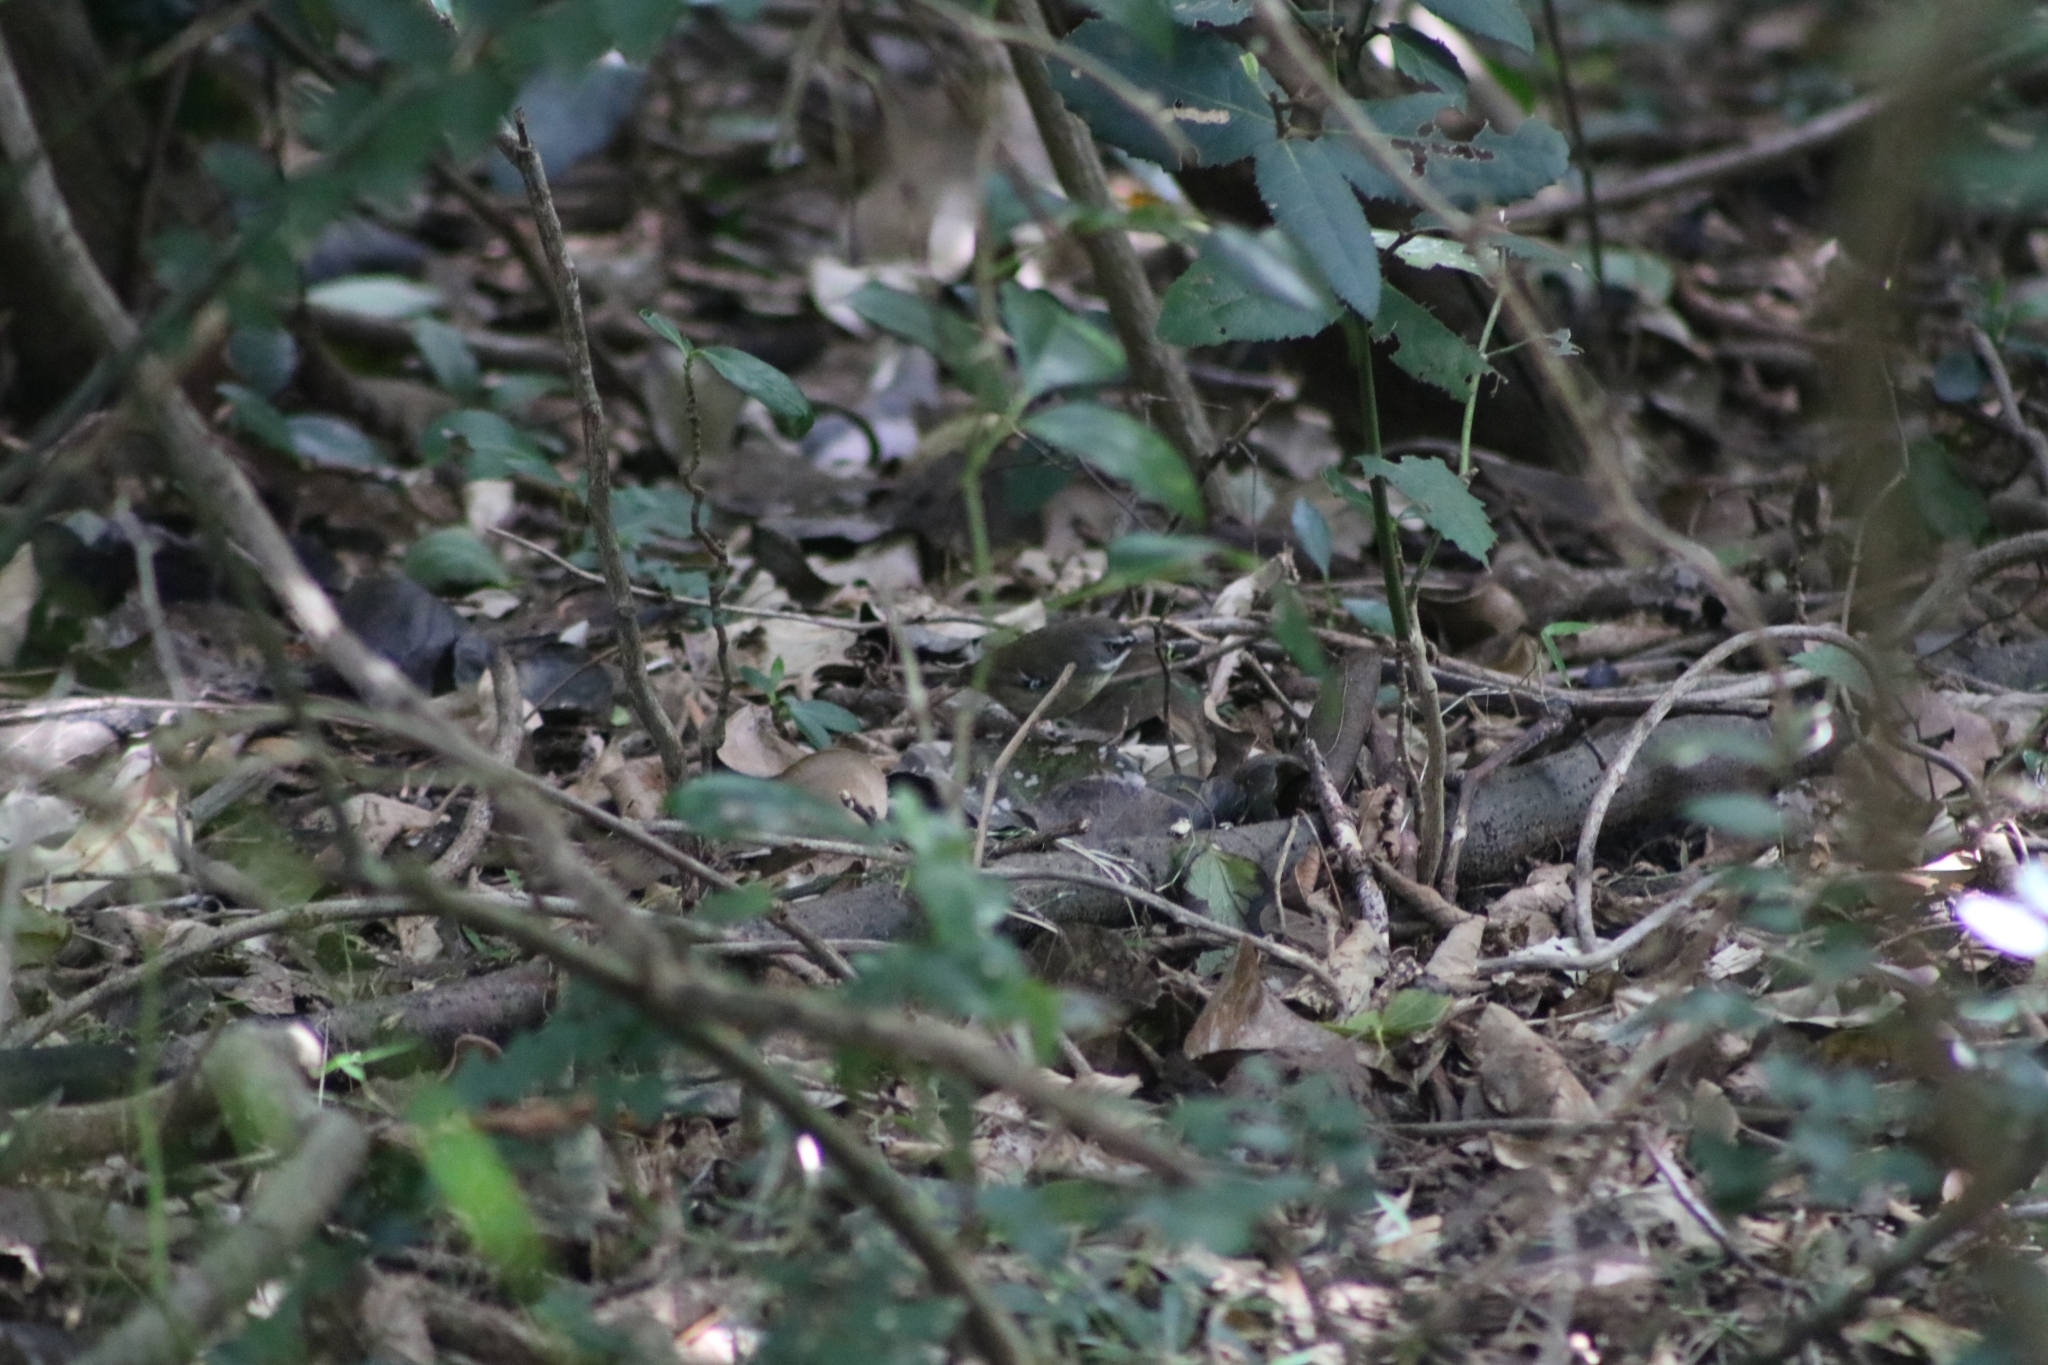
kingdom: Animalia
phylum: Chordata
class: Aves
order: Passeriformes
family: Acanthizidae
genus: Sericornis
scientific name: Sericornis frontalis
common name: White-browed scrubwren
